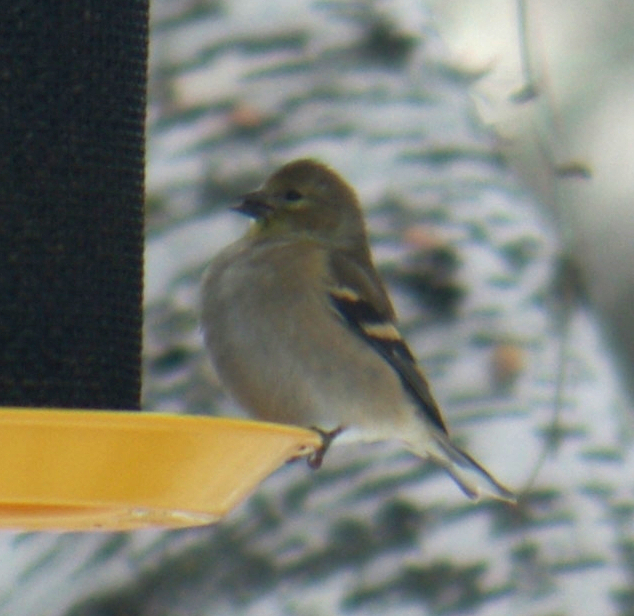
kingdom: Animalia
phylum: Chordata
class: Aves
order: Passeriformes
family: Fringillidae
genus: Spinus
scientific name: Spinus tristis
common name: American goldfinch
